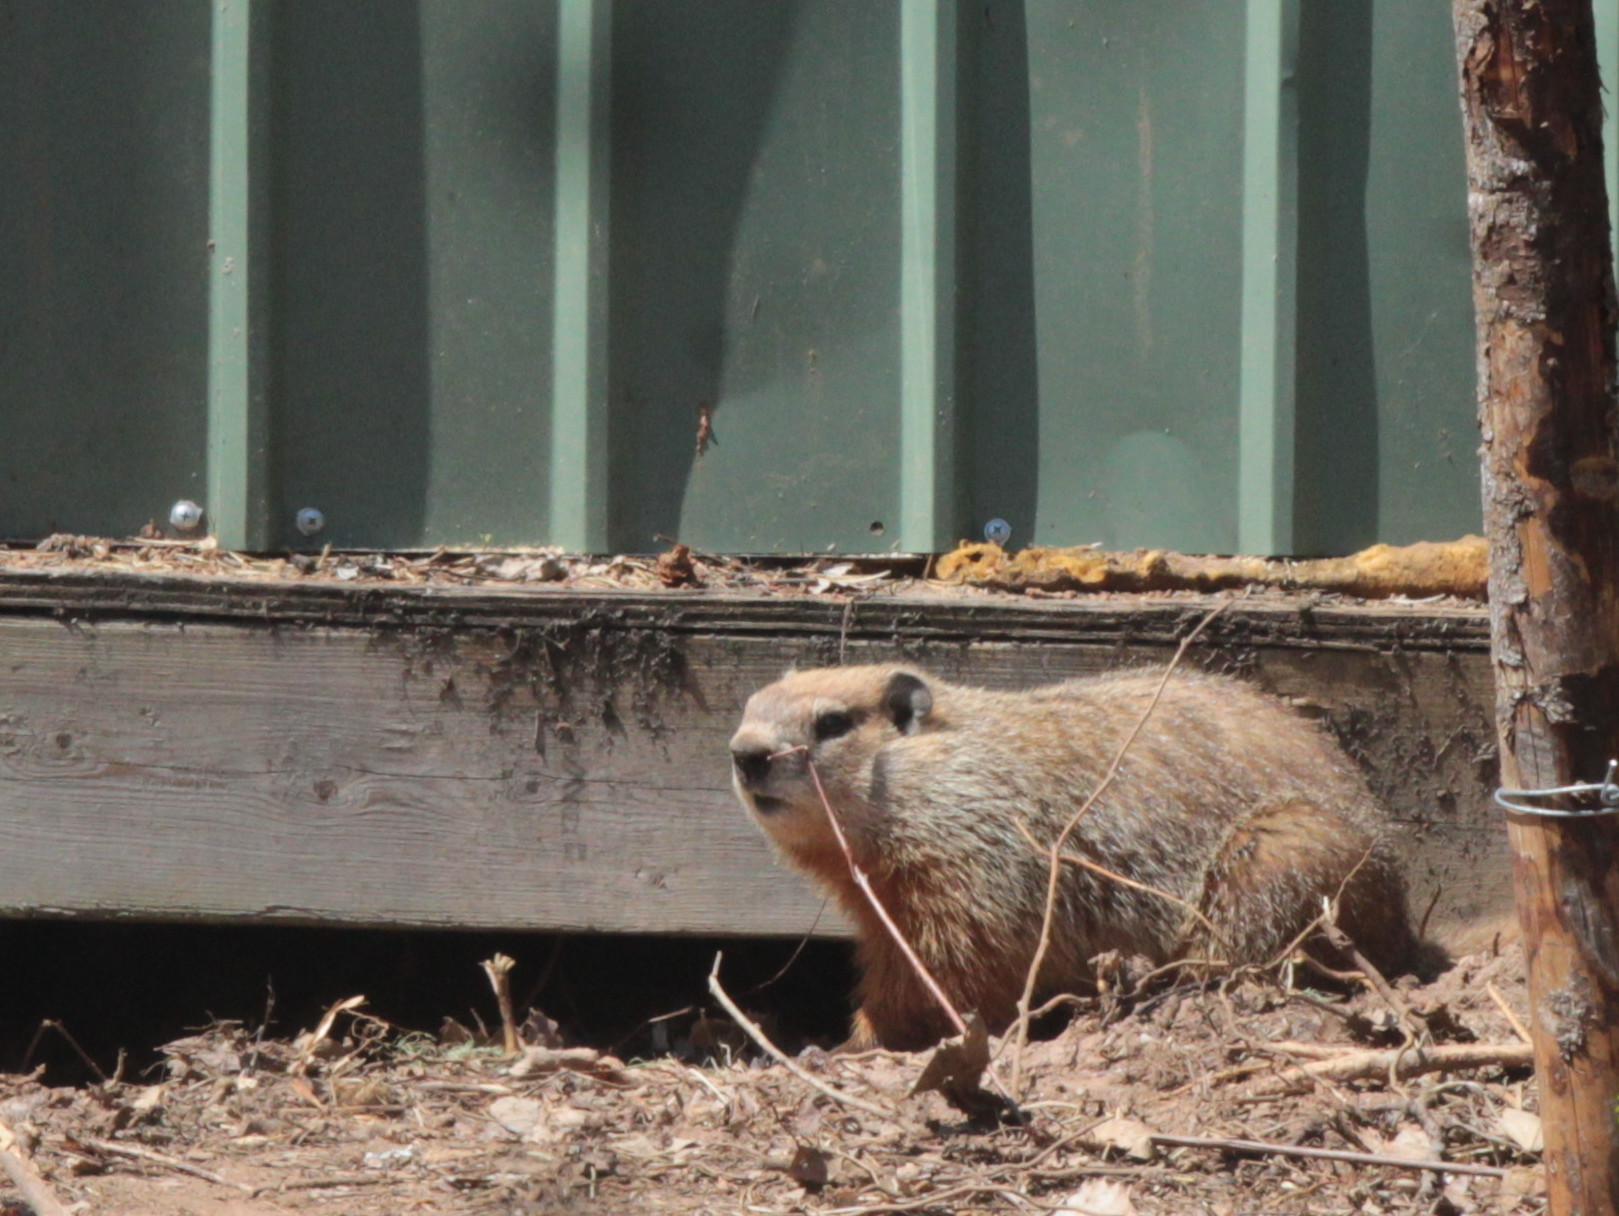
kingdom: Animalia
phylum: Chordata
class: Mammalia
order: Rodentia
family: Sciuridae
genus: Marmota
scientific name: Marmota monax
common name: Groundhog
